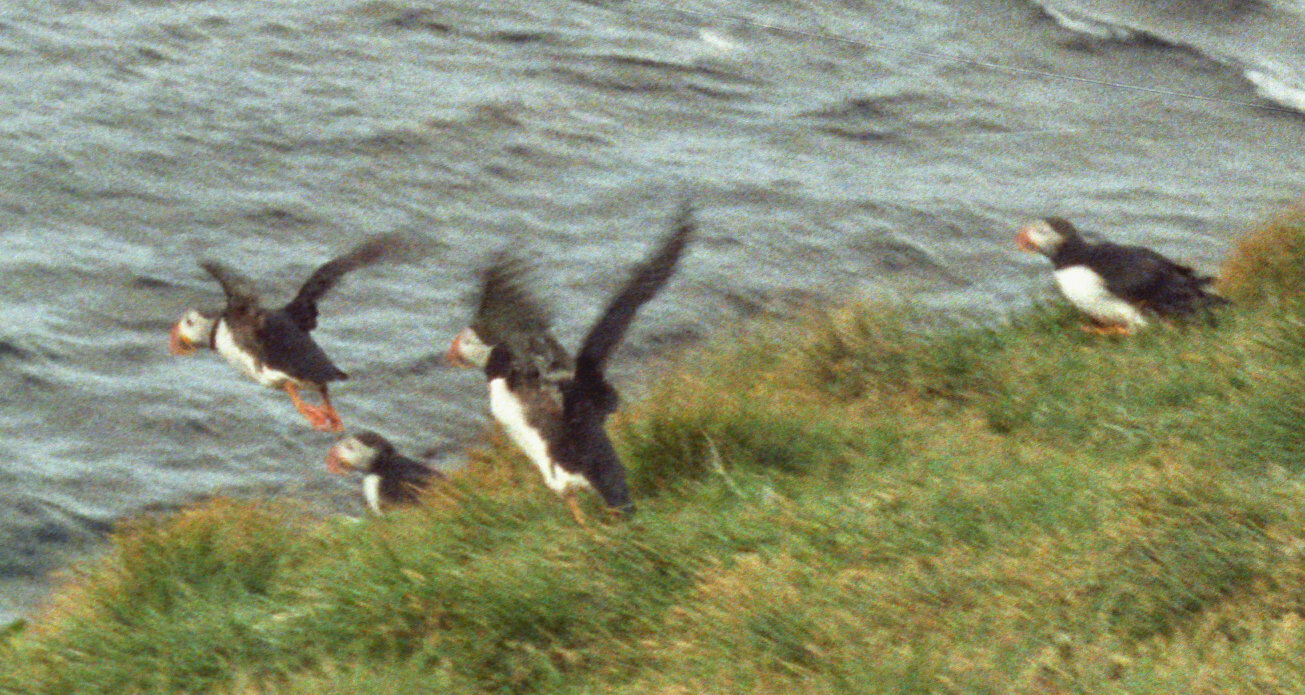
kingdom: Animalia
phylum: Chordata
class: Aves
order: Charadriiformes
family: Alcidae
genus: Fratercula
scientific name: Fratercula arctica
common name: Atlantic puffin
